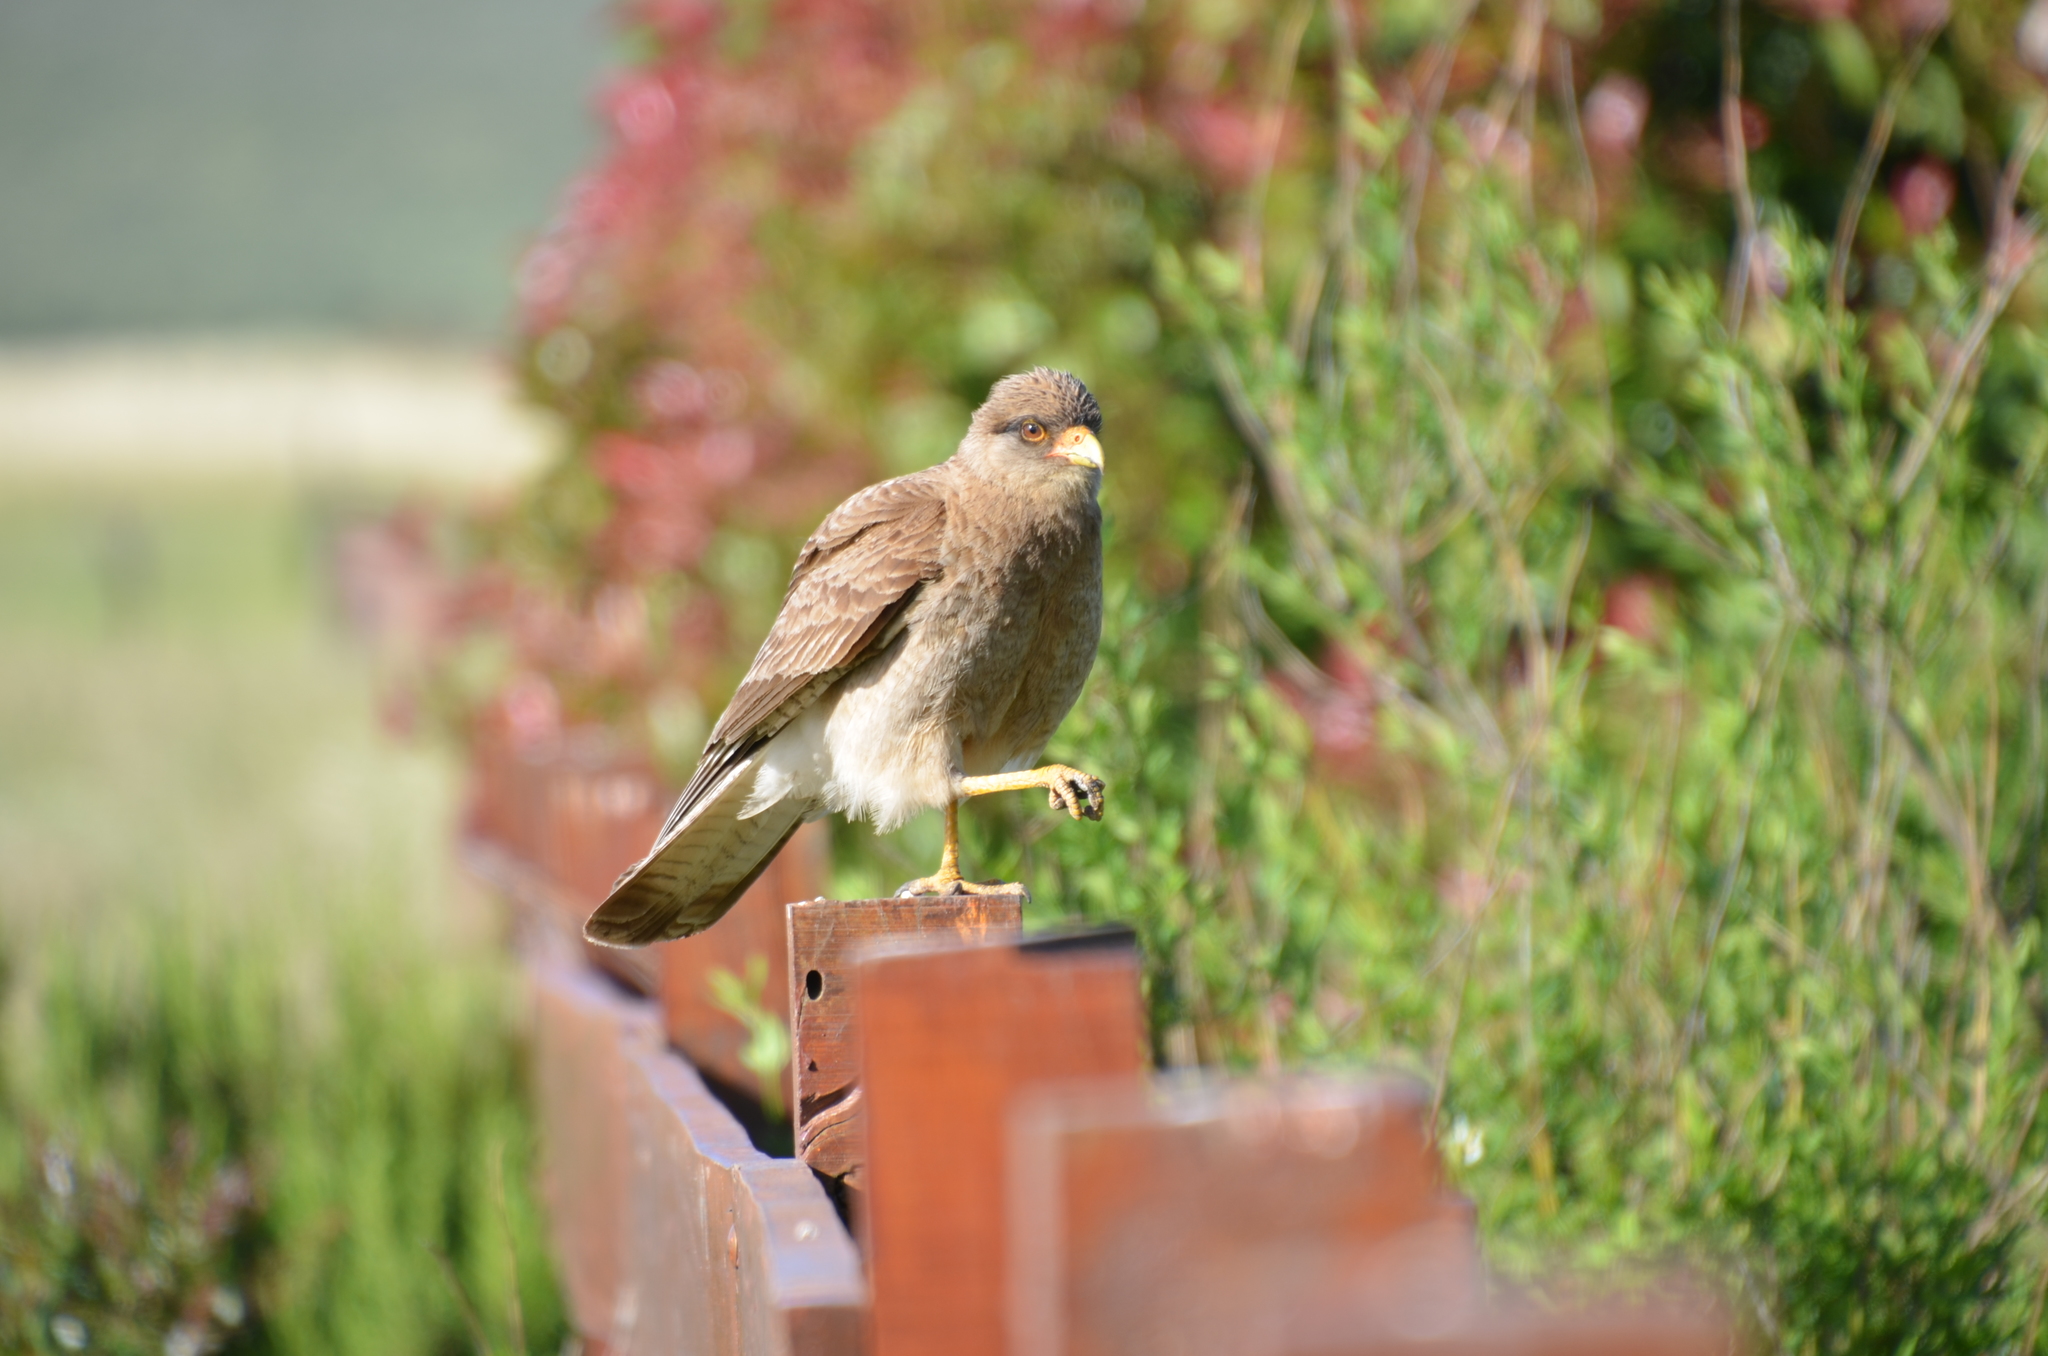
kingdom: Animalia
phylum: Chordata
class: Aves
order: Falconiformes
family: Falconidae
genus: Daptrius
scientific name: Daptrius
